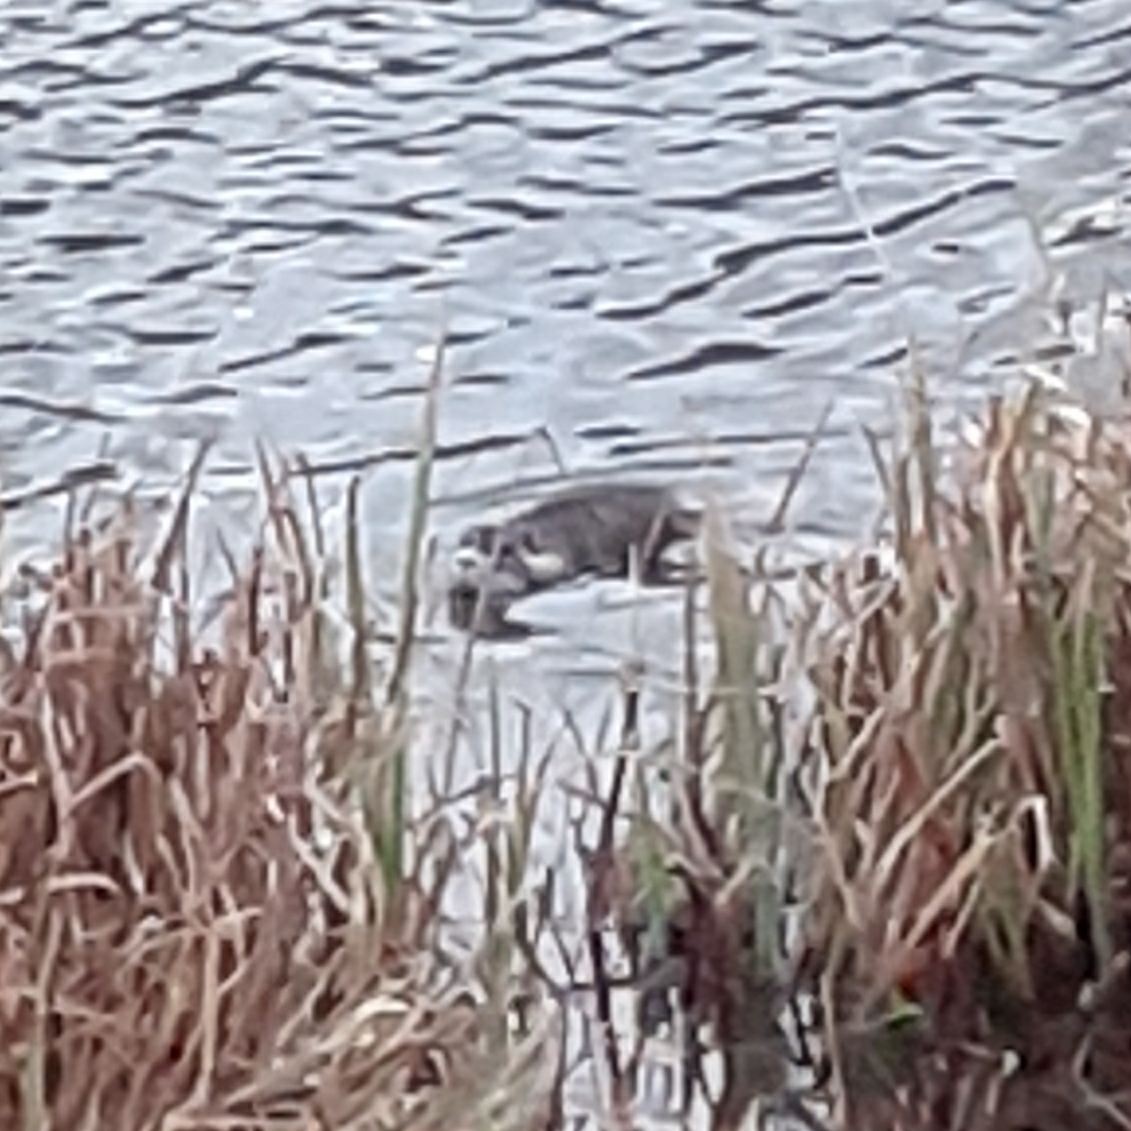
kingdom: Animalia
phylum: Chordata
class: Mammalia
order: Rodentia
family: Myocastoridae
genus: Myocastor
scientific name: Myocastor coypus
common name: Coypu
